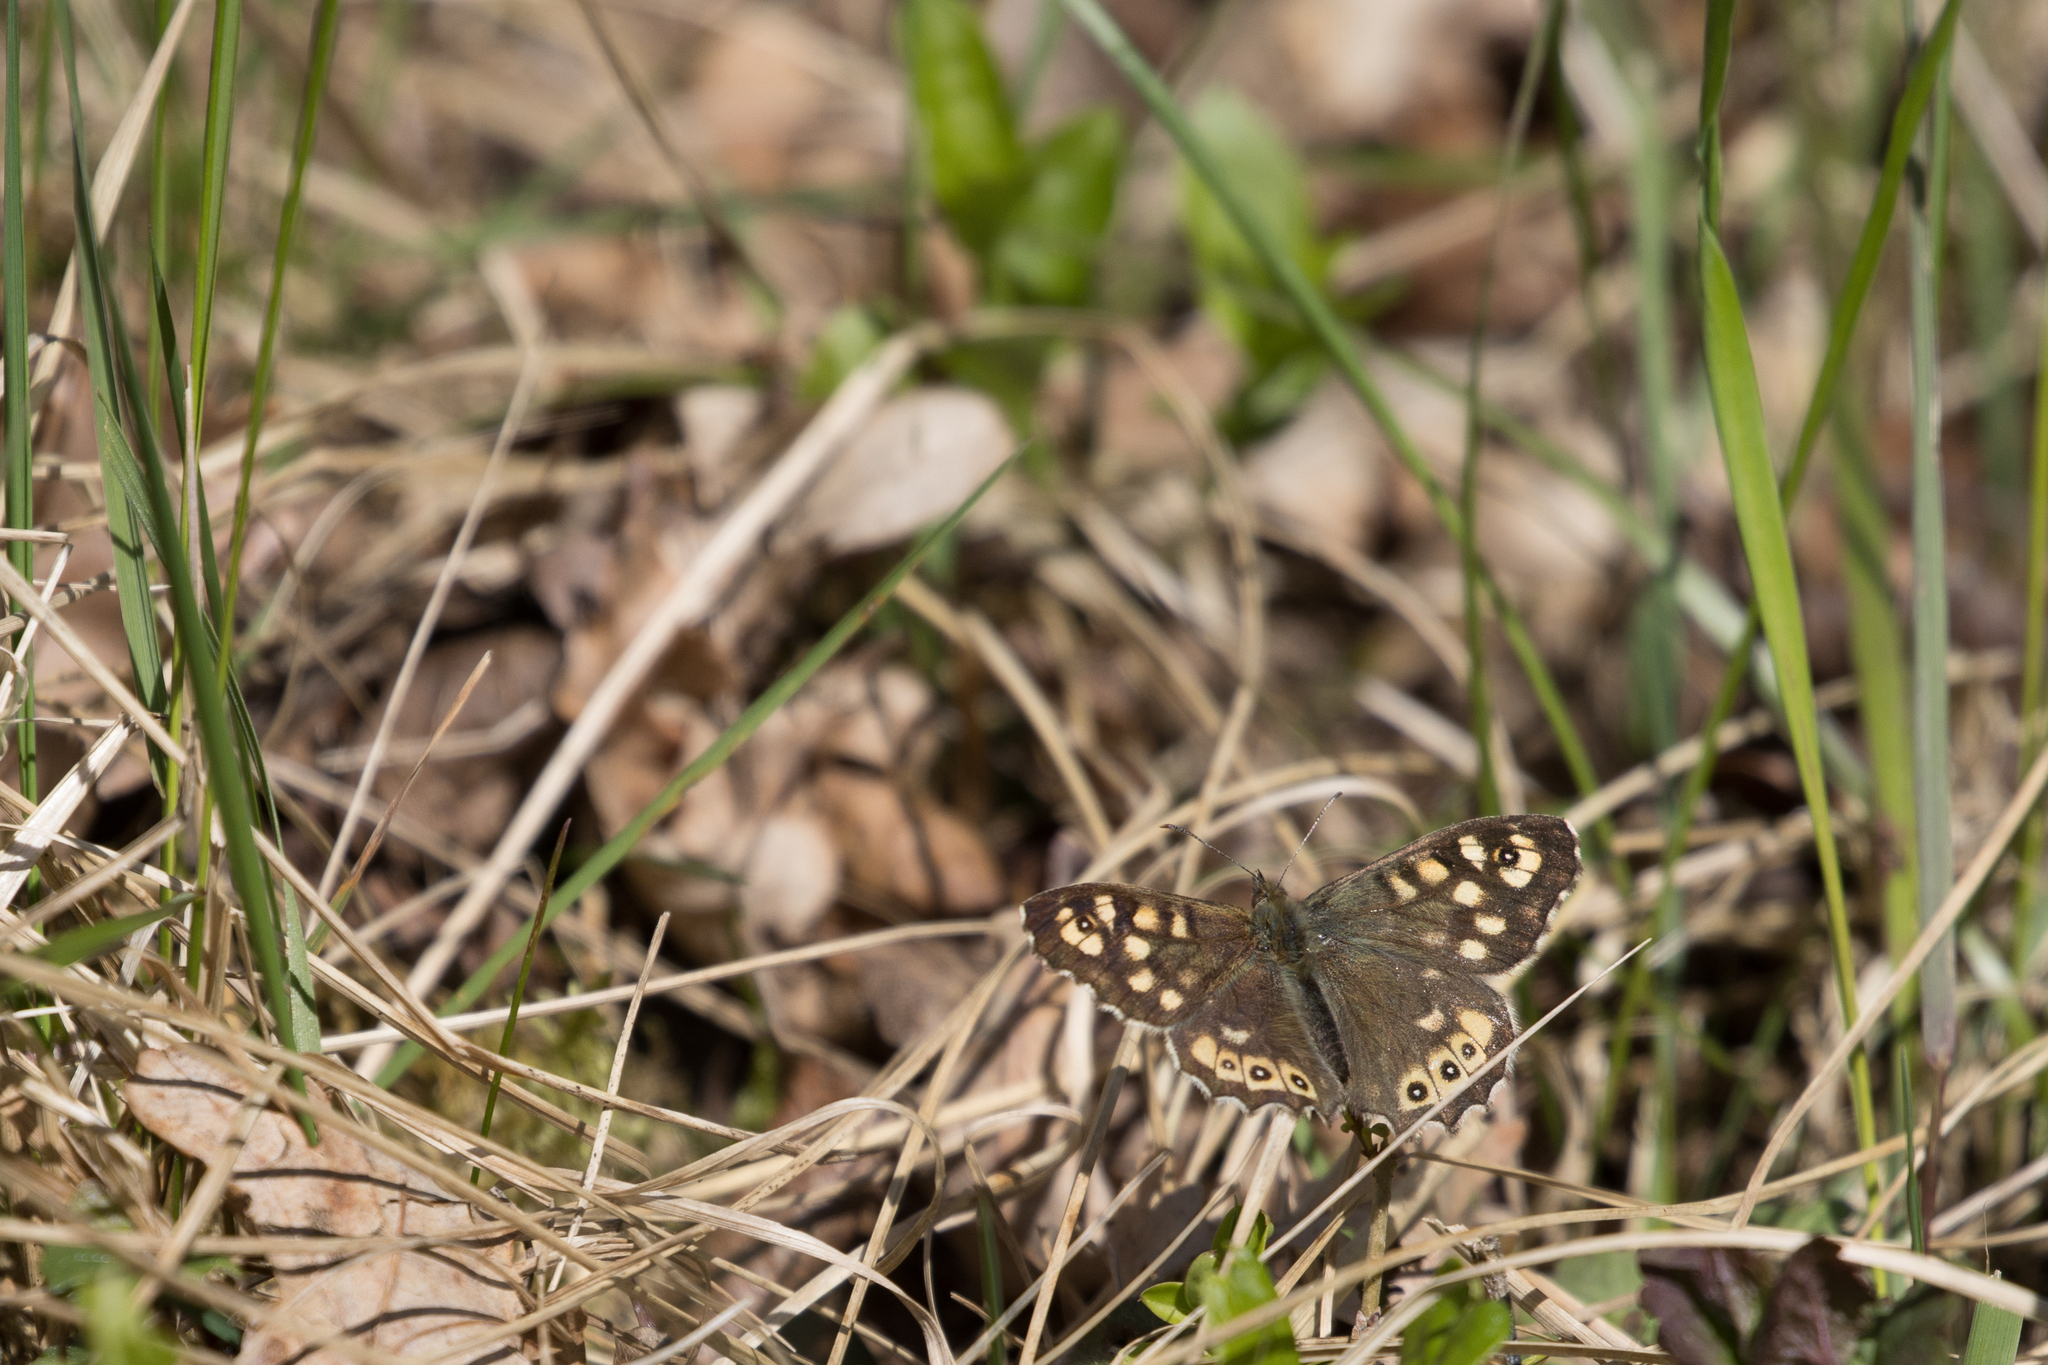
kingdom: Animalia
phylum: Arthropoda
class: Insecta
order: Lepidoptera
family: Nymphalidae
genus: Pararge
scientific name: Pararge aegeria
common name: Speckled wood
